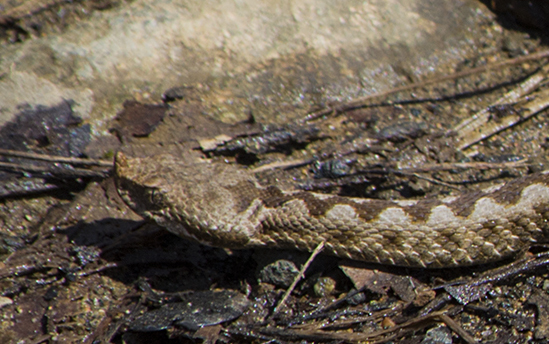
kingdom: Animalia
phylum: Chordata
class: Squamata
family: Viperidae
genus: Vipera
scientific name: Vipera ammodytes
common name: Sand viper
